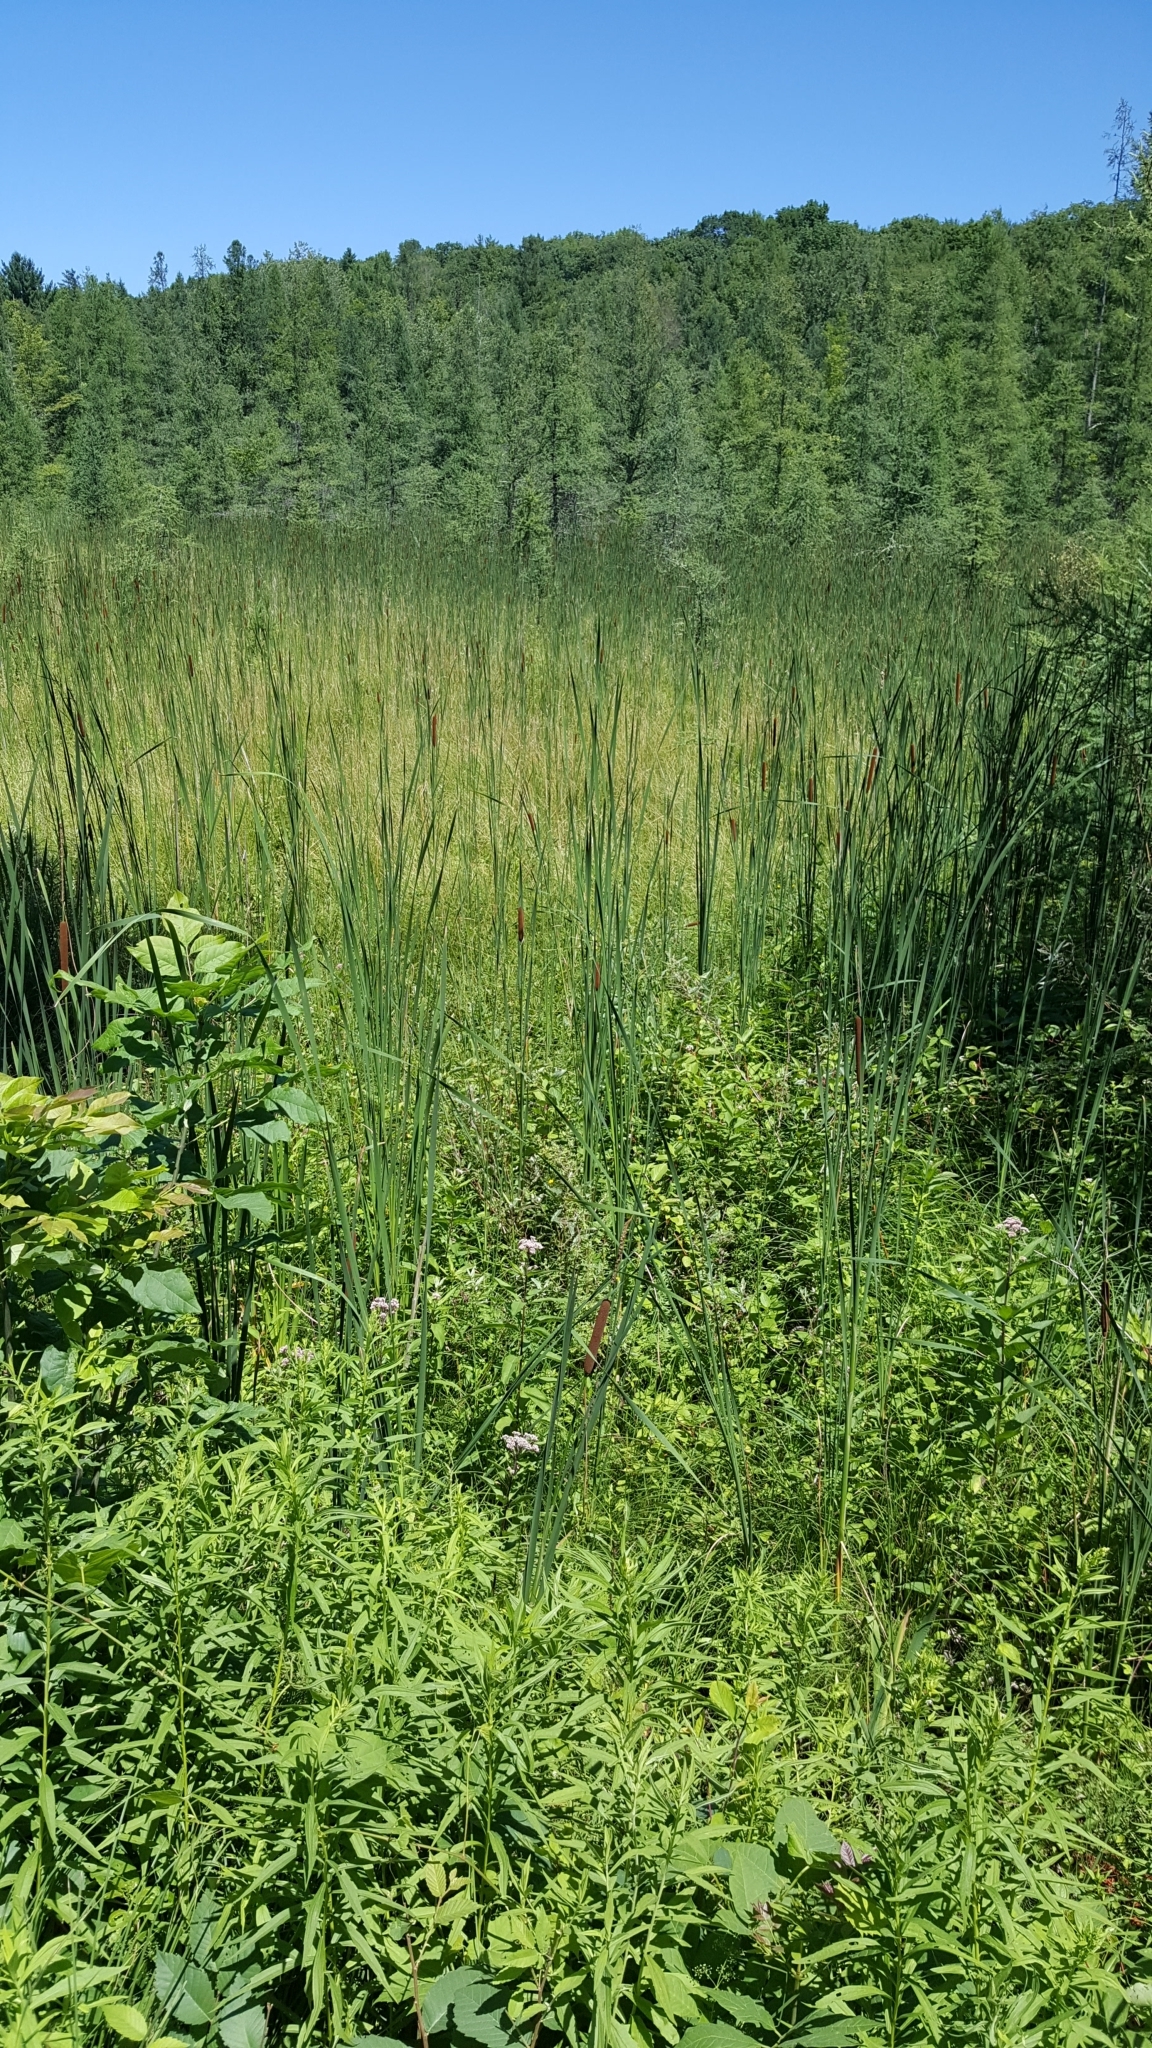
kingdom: Plantae
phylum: Tracheophyta
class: Liliopsida
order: Poales
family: Typhaceae
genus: Typha
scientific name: Typha angustifolia
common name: Lesser bulrush
